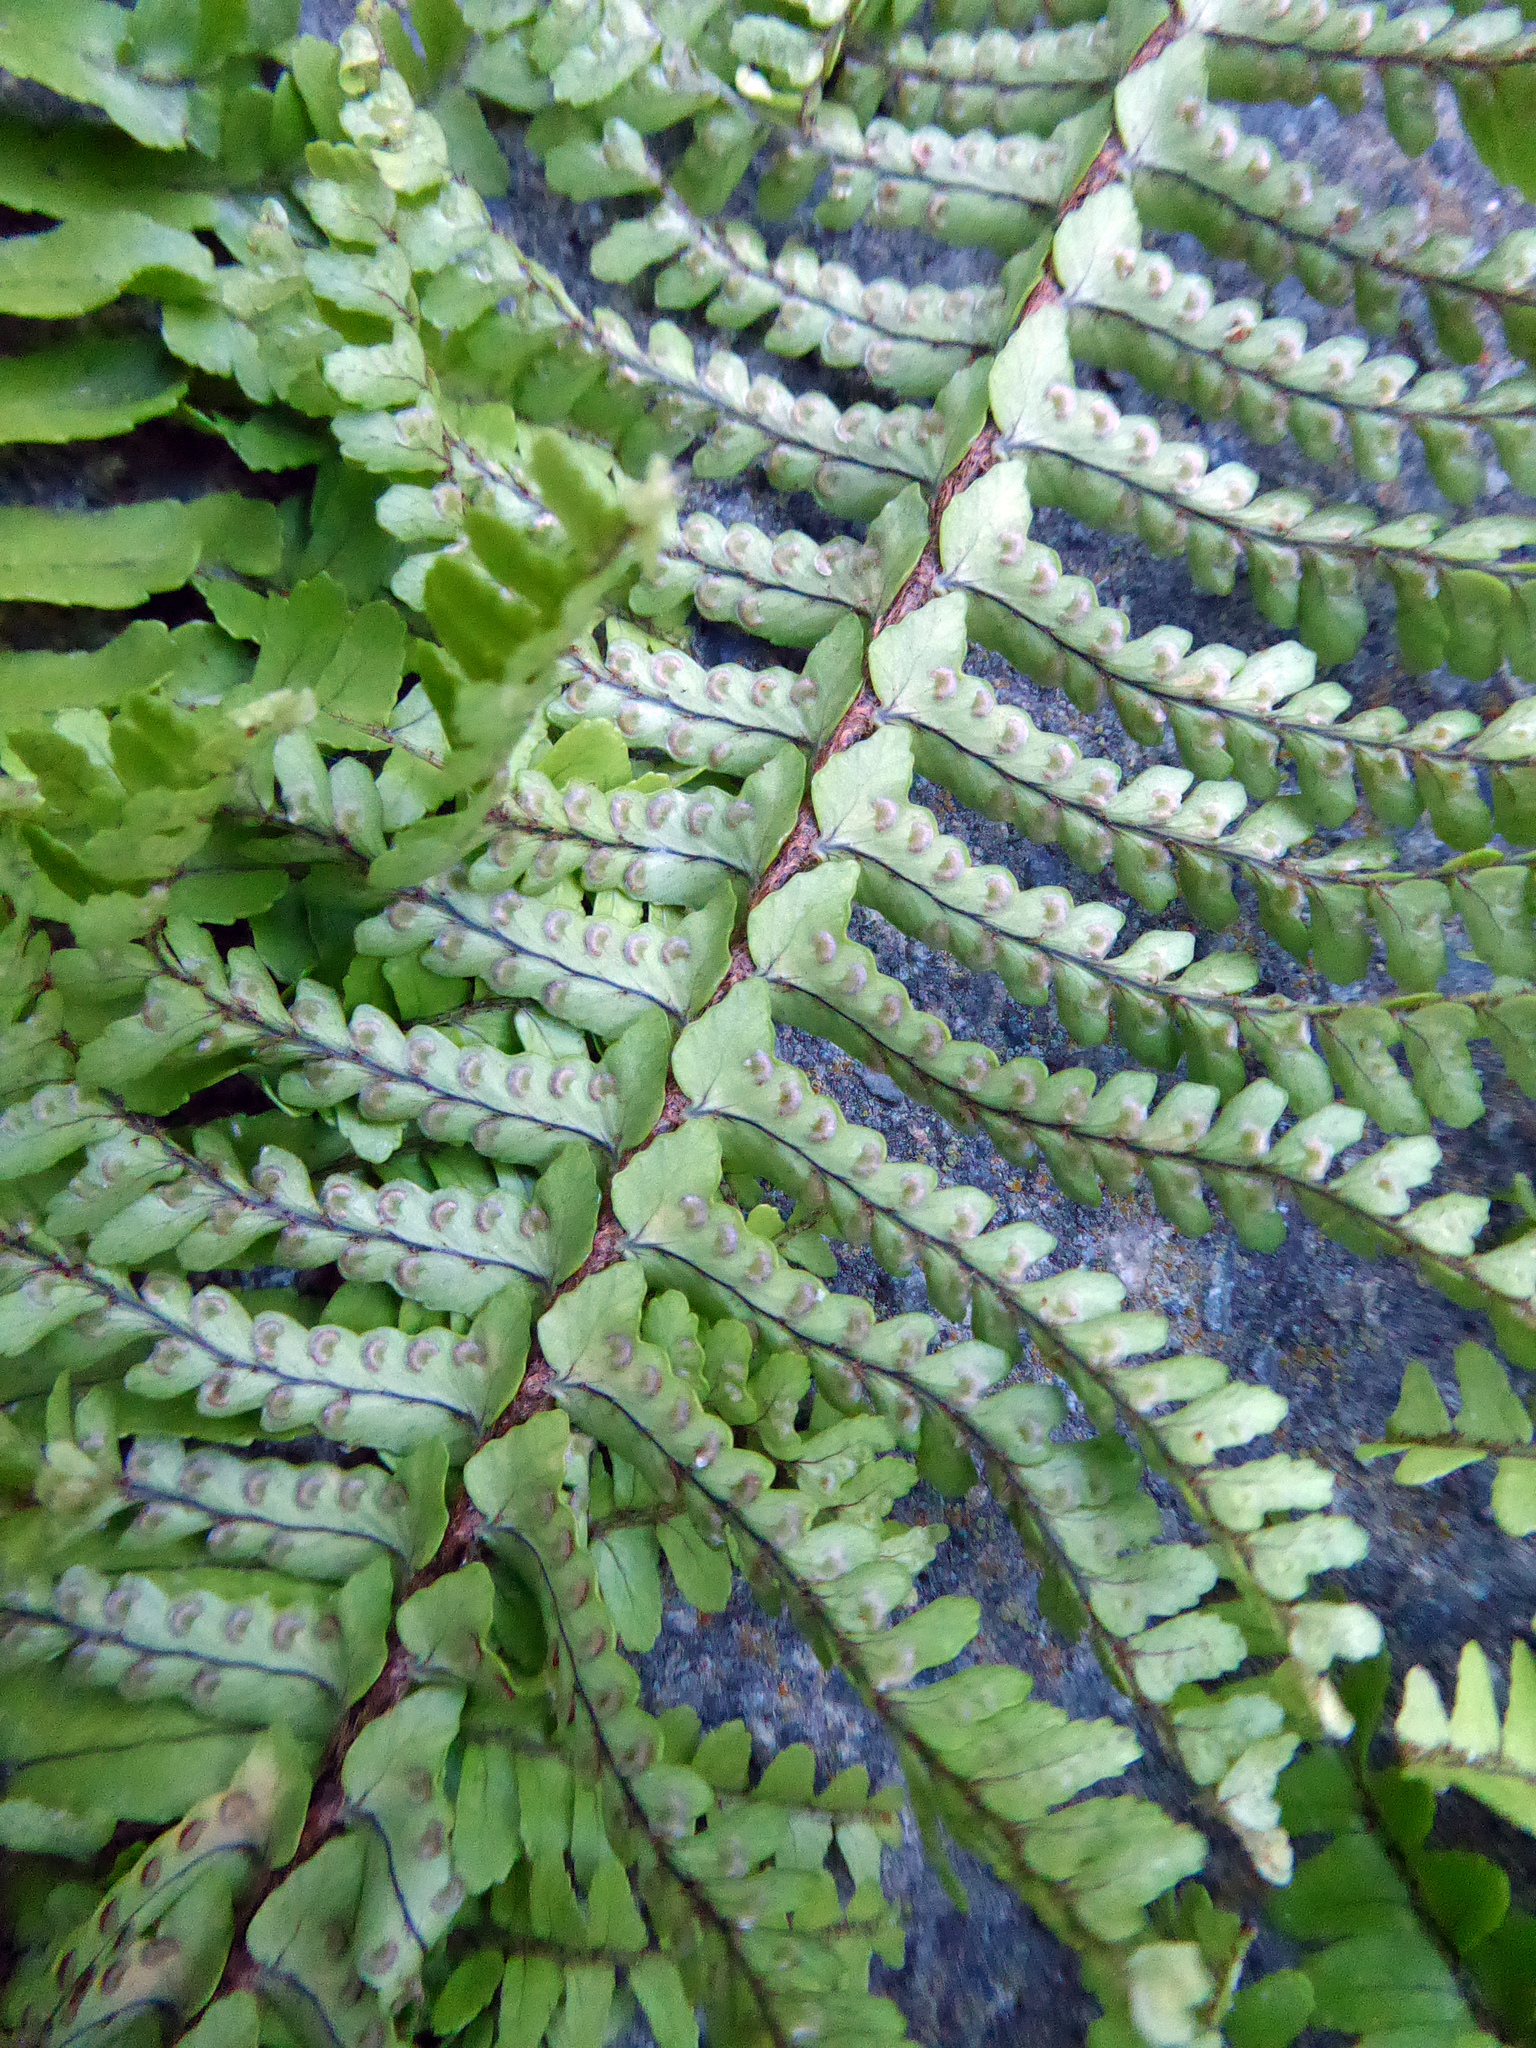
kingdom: Plantae
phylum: Tracheophyta
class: Polypodiopsida
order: Polypodiales
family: Nephrolepidaceae
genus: Nephrolepis
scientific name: Nephrolepis cordifolia
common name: Narrow swordfern
